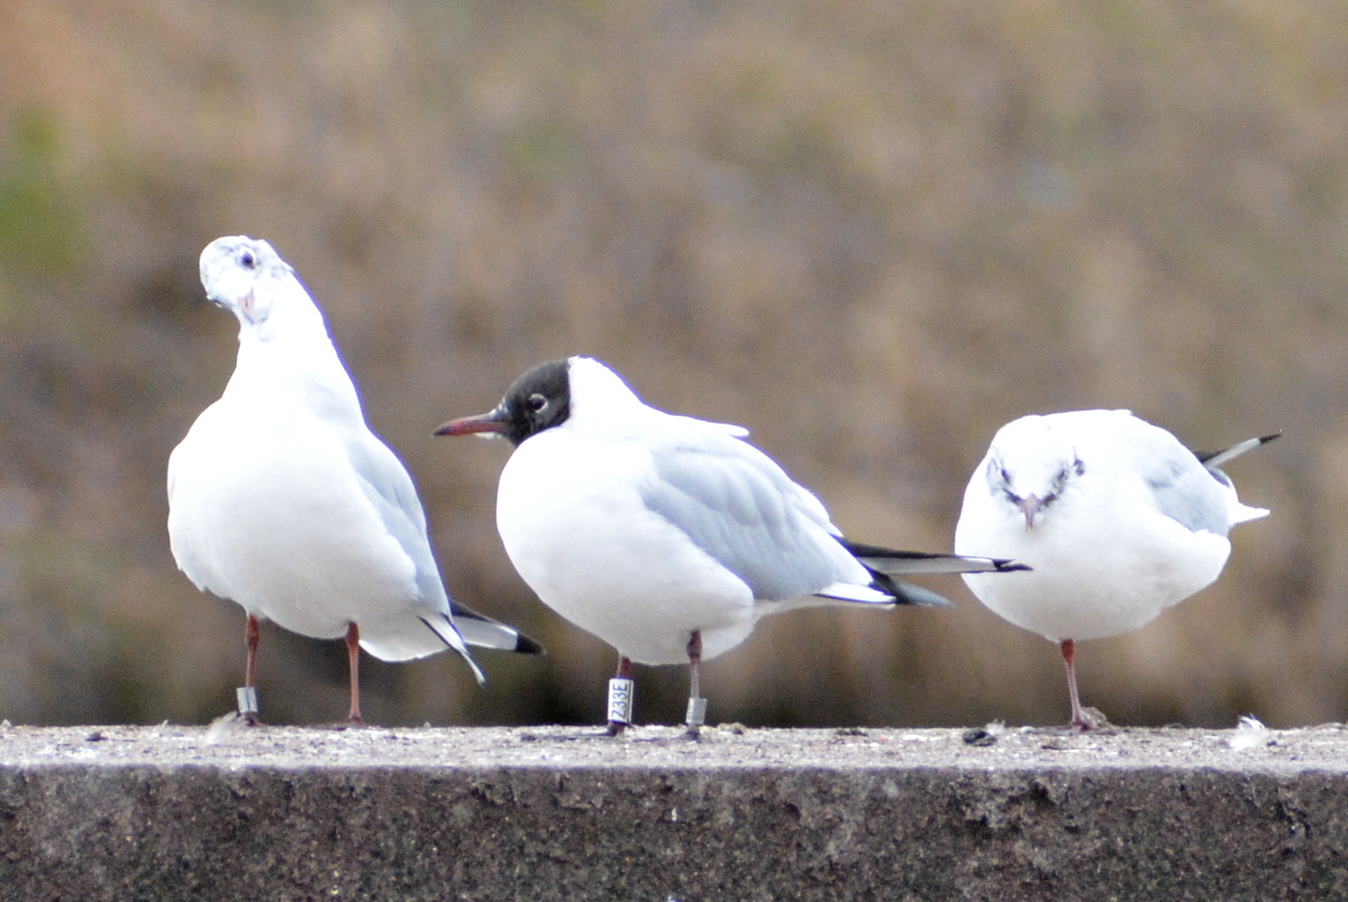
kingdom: Animalia
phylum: Chordata
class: Aves
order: Charadriiformes
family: Laridae
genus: Chroicocephalus
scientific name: Chroicocephalus ridibundus
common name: Black-headed gull
